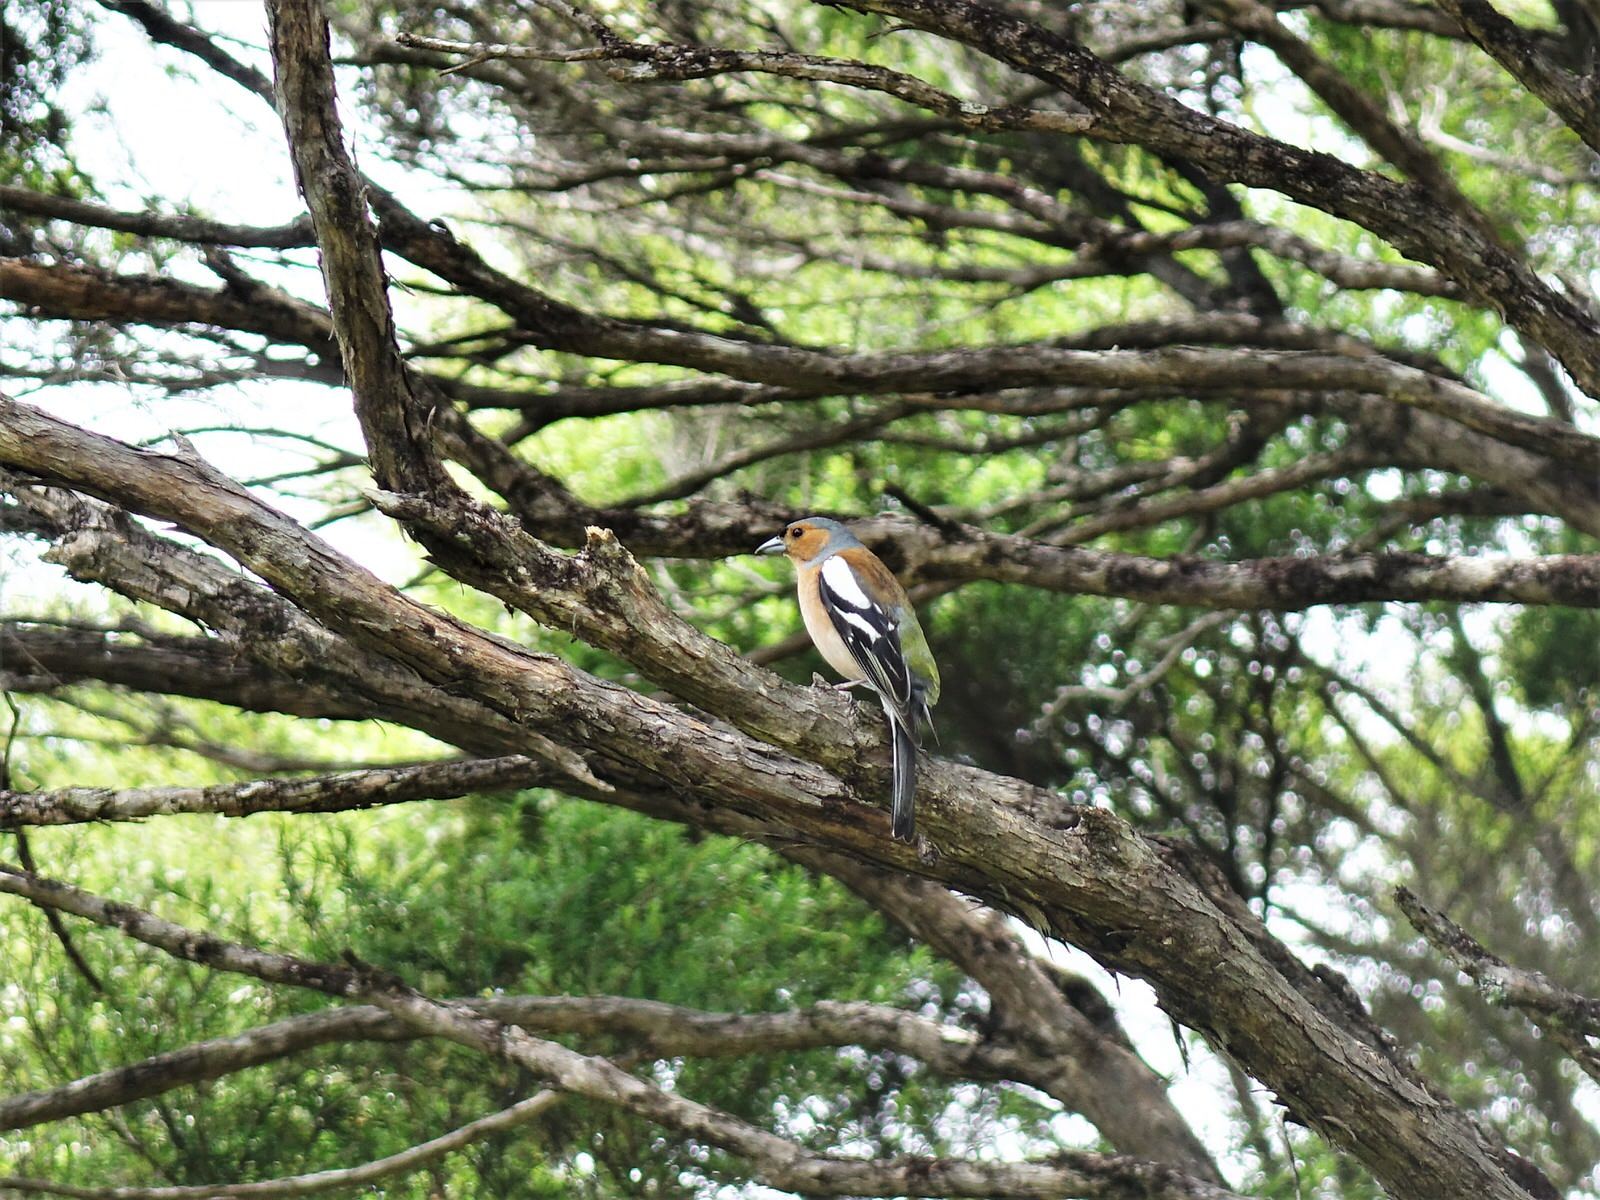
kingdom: Animalia
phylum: Chordata
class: Aves
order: Passeriformes
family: Fringillidae
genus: Fringilla
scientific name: Fringilla coelebs
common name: Common chaffinch
